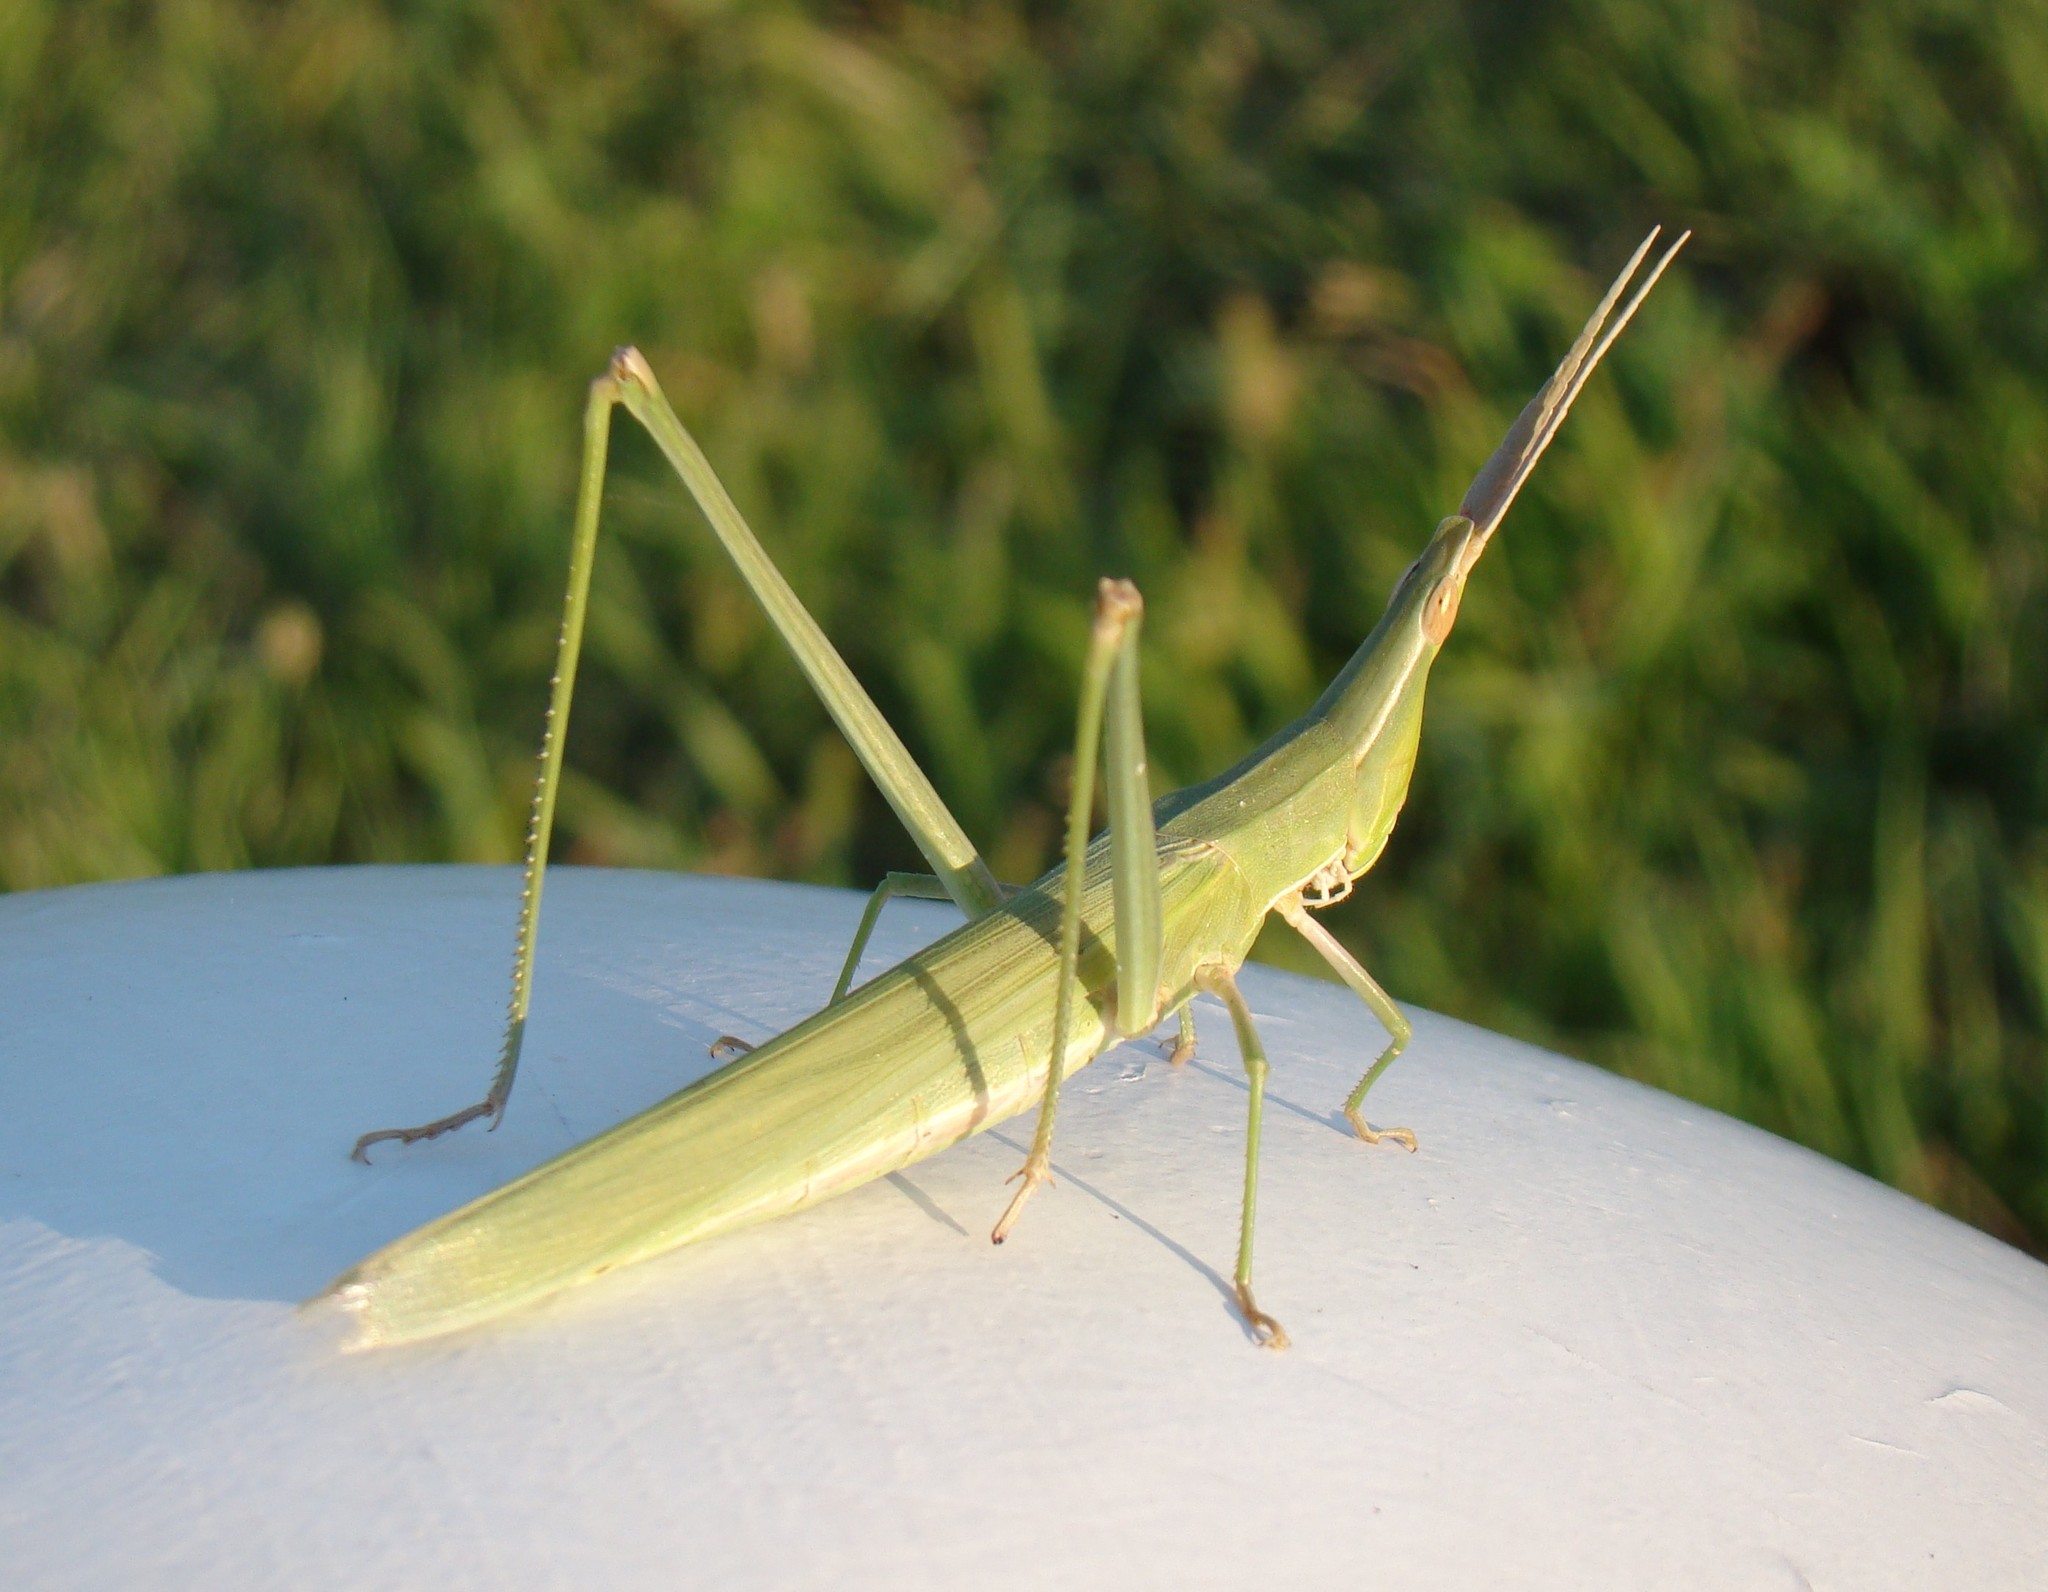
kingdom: Animalia
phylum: Arthropoda
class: Insecta
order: Orthoptera
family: Acrididae
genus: Acrida
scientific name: Acrida oxycephala
